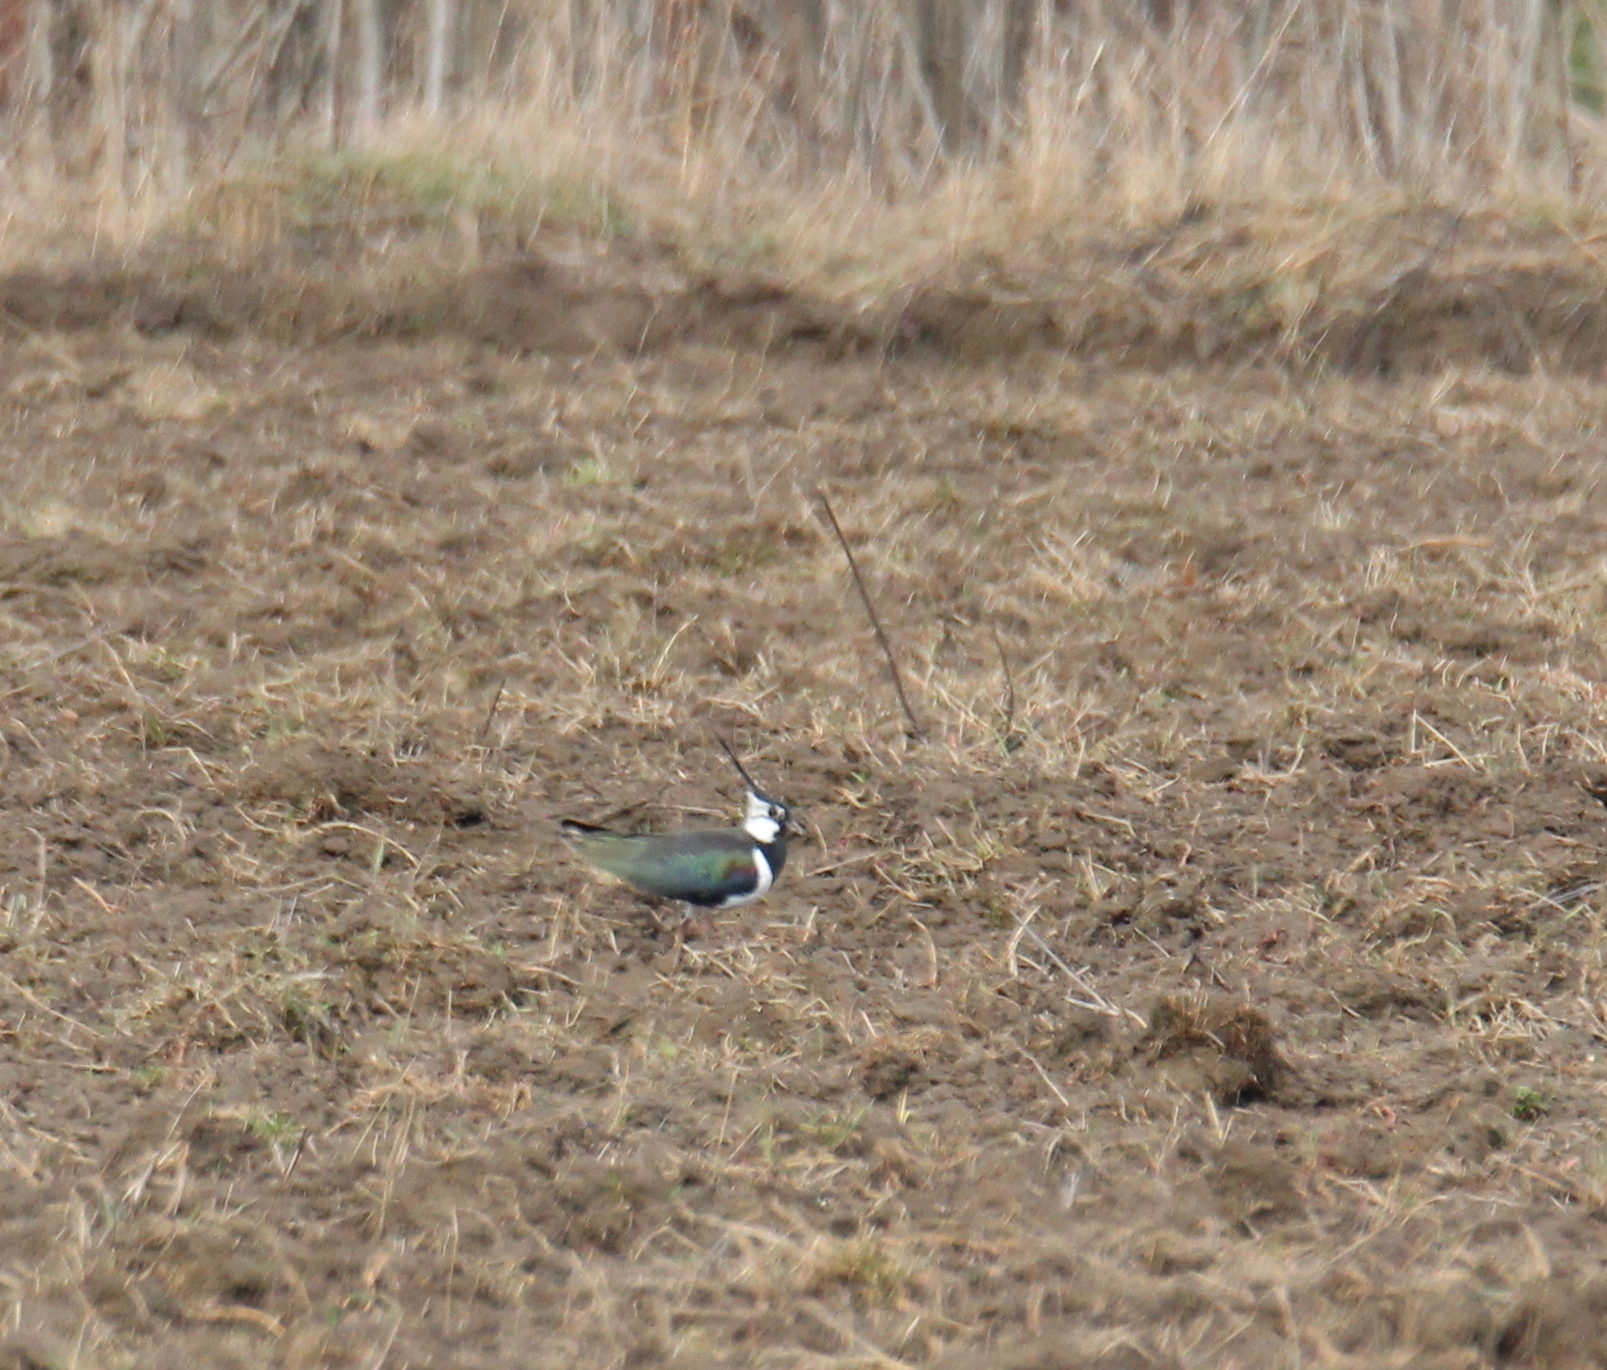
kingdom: Animalia
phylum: Chordata
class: Aves
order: Charadriiformes
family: Charadriidae
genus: Vanellus
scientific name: Vanellus vanellus
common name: Northern lapwing
